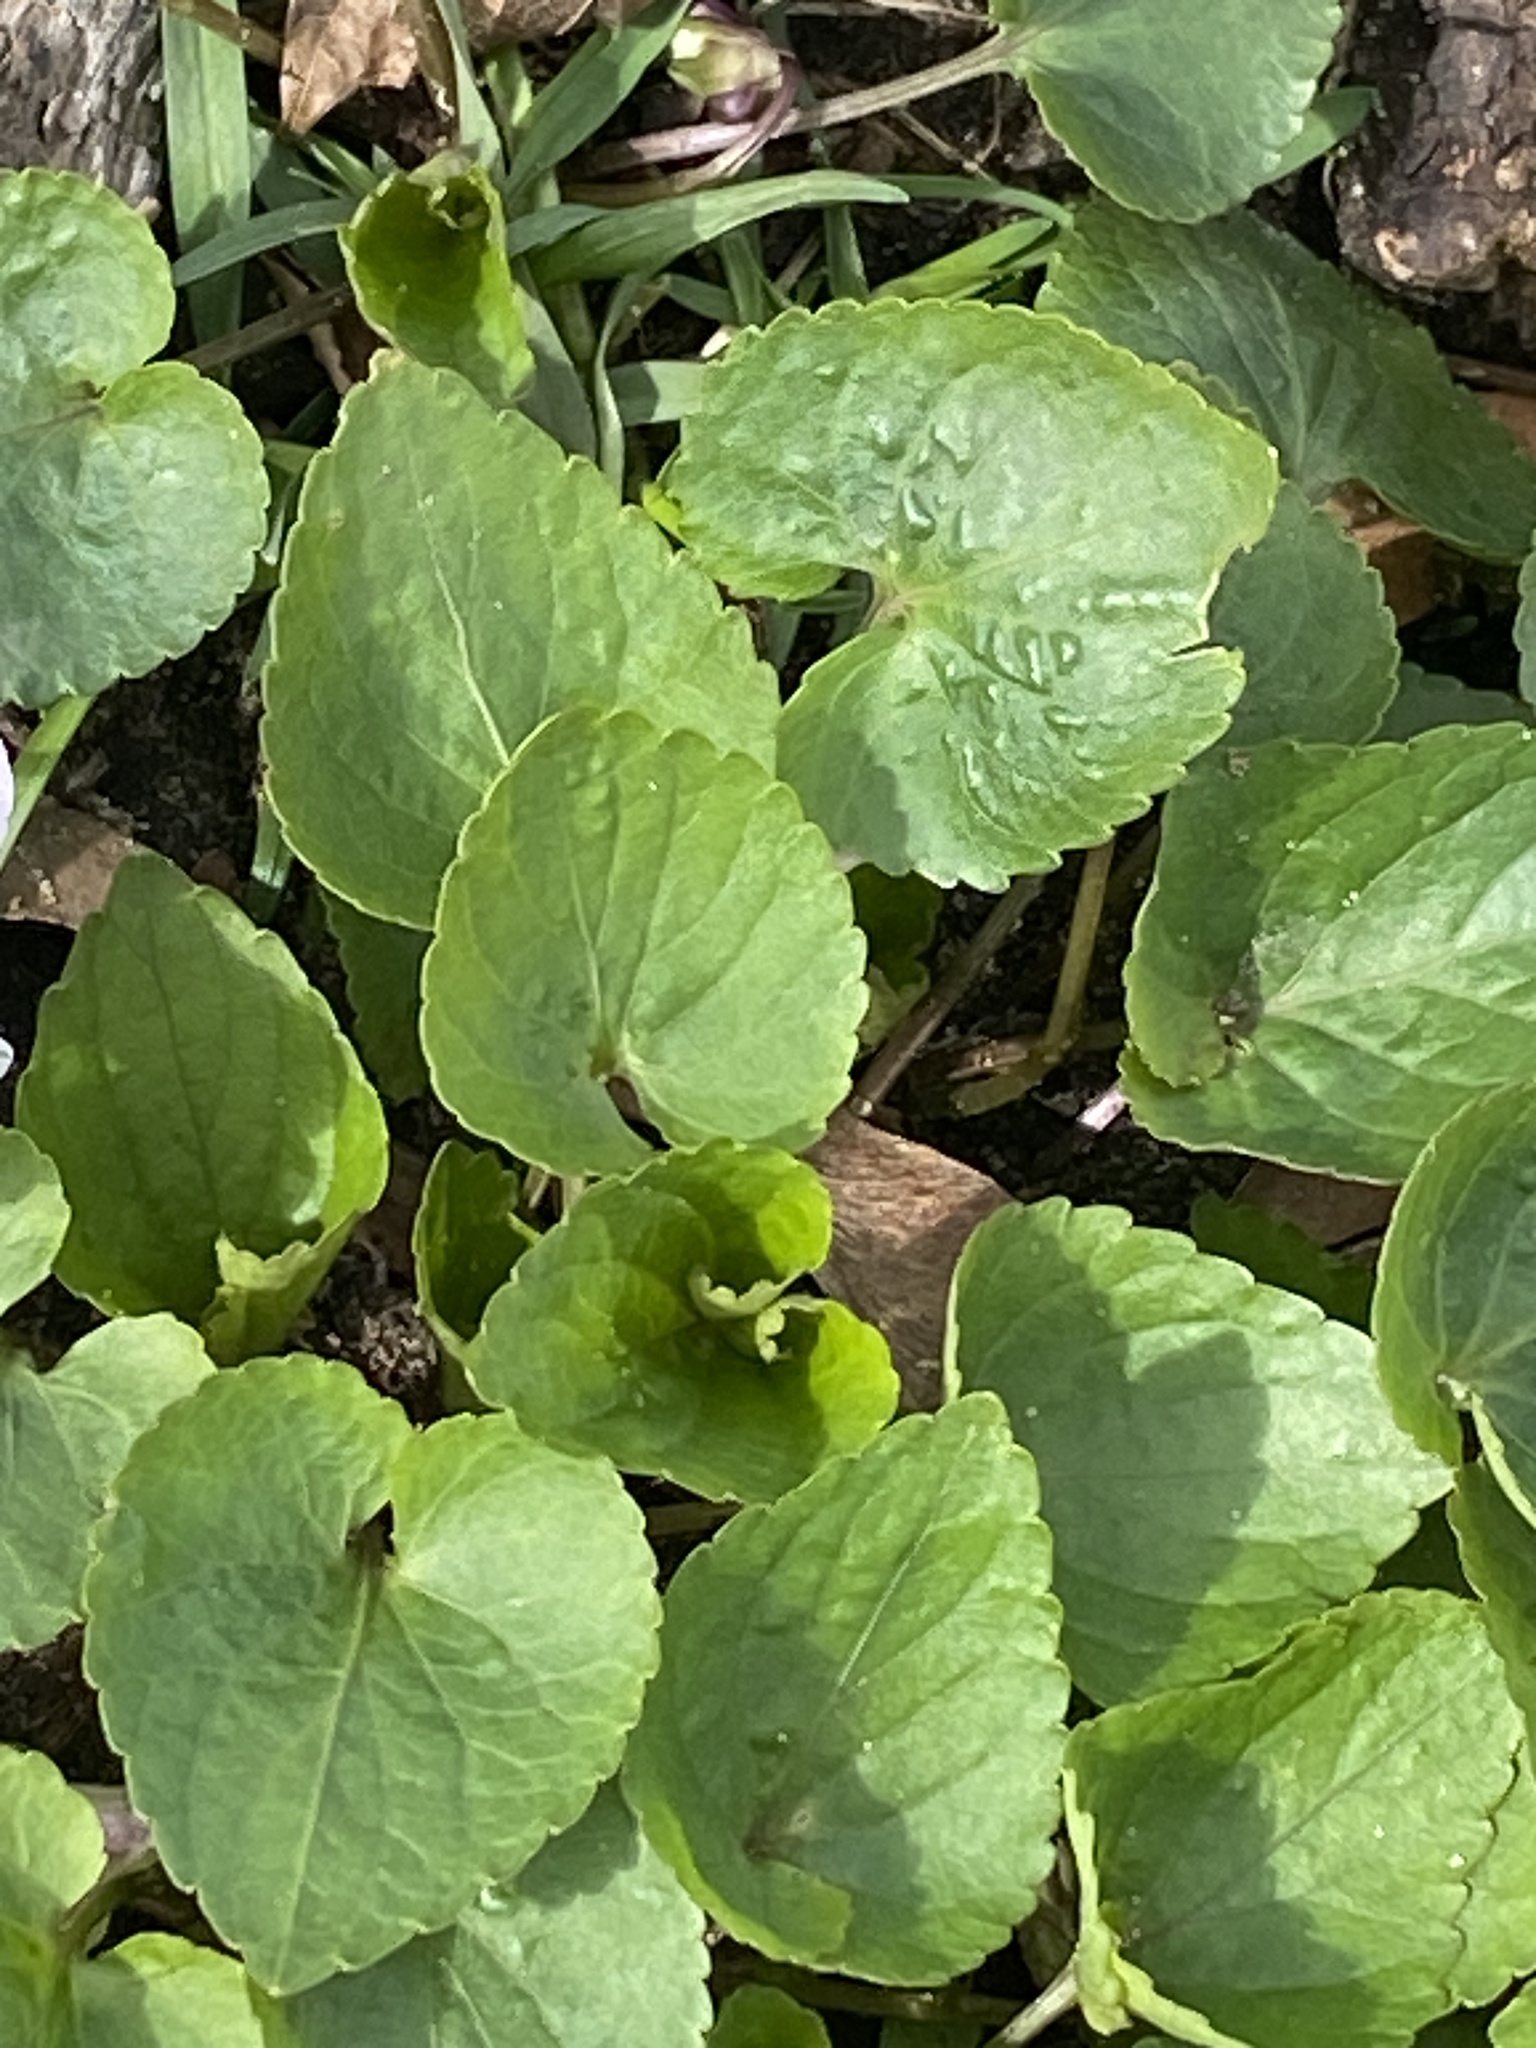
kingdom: Plantae
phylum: Tracheophyta
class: Magnoliopsida
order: Malpighiales
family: Violaceae
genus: Viola
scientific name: Viola sororia
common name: Dooryard violet
